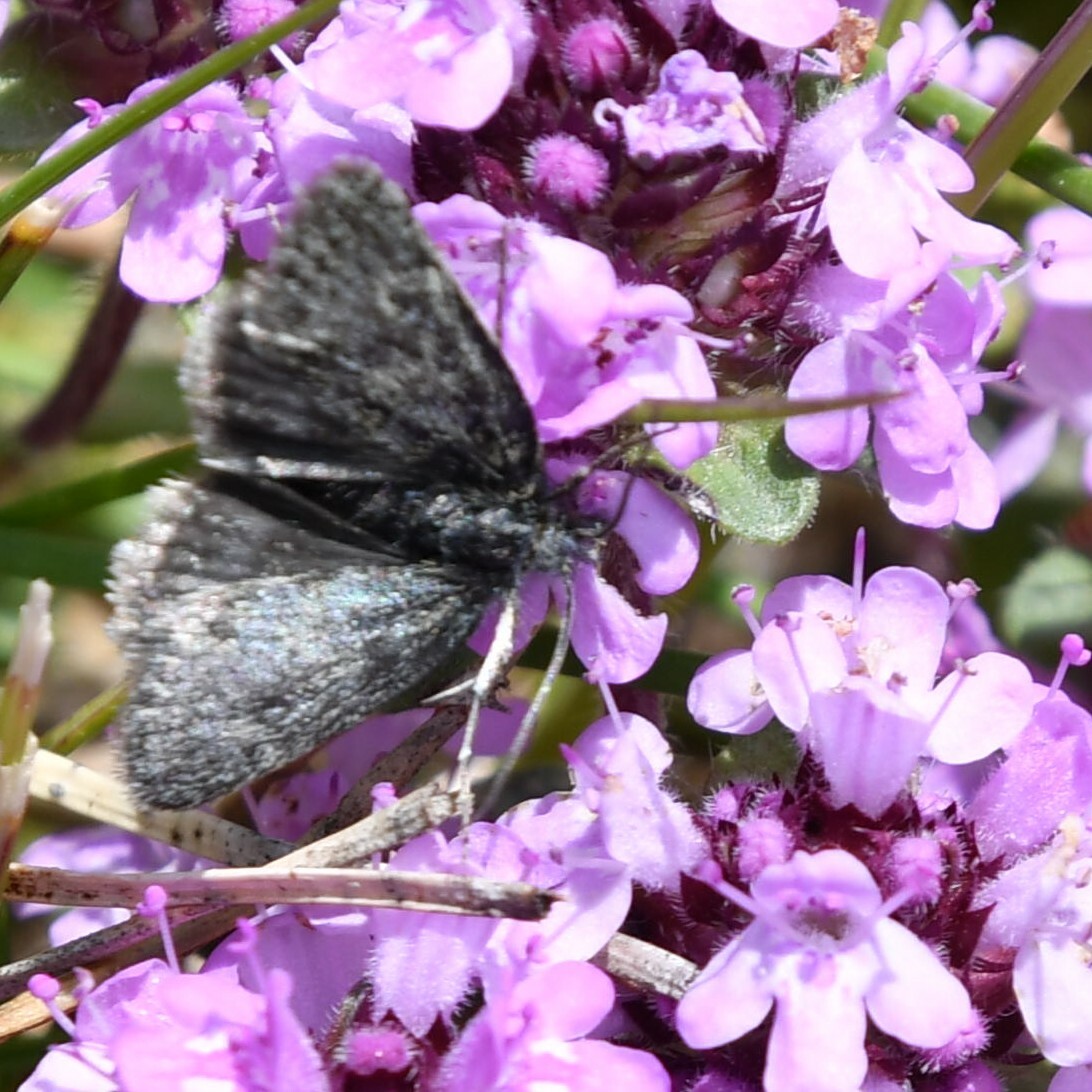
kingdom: Animalia
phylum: Arthropoda
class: Insecta
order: Lepidoptera
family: Crambidae
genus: Metaxmeste
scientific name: Metaxmeste phrygialis
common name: Black mountain pearl
